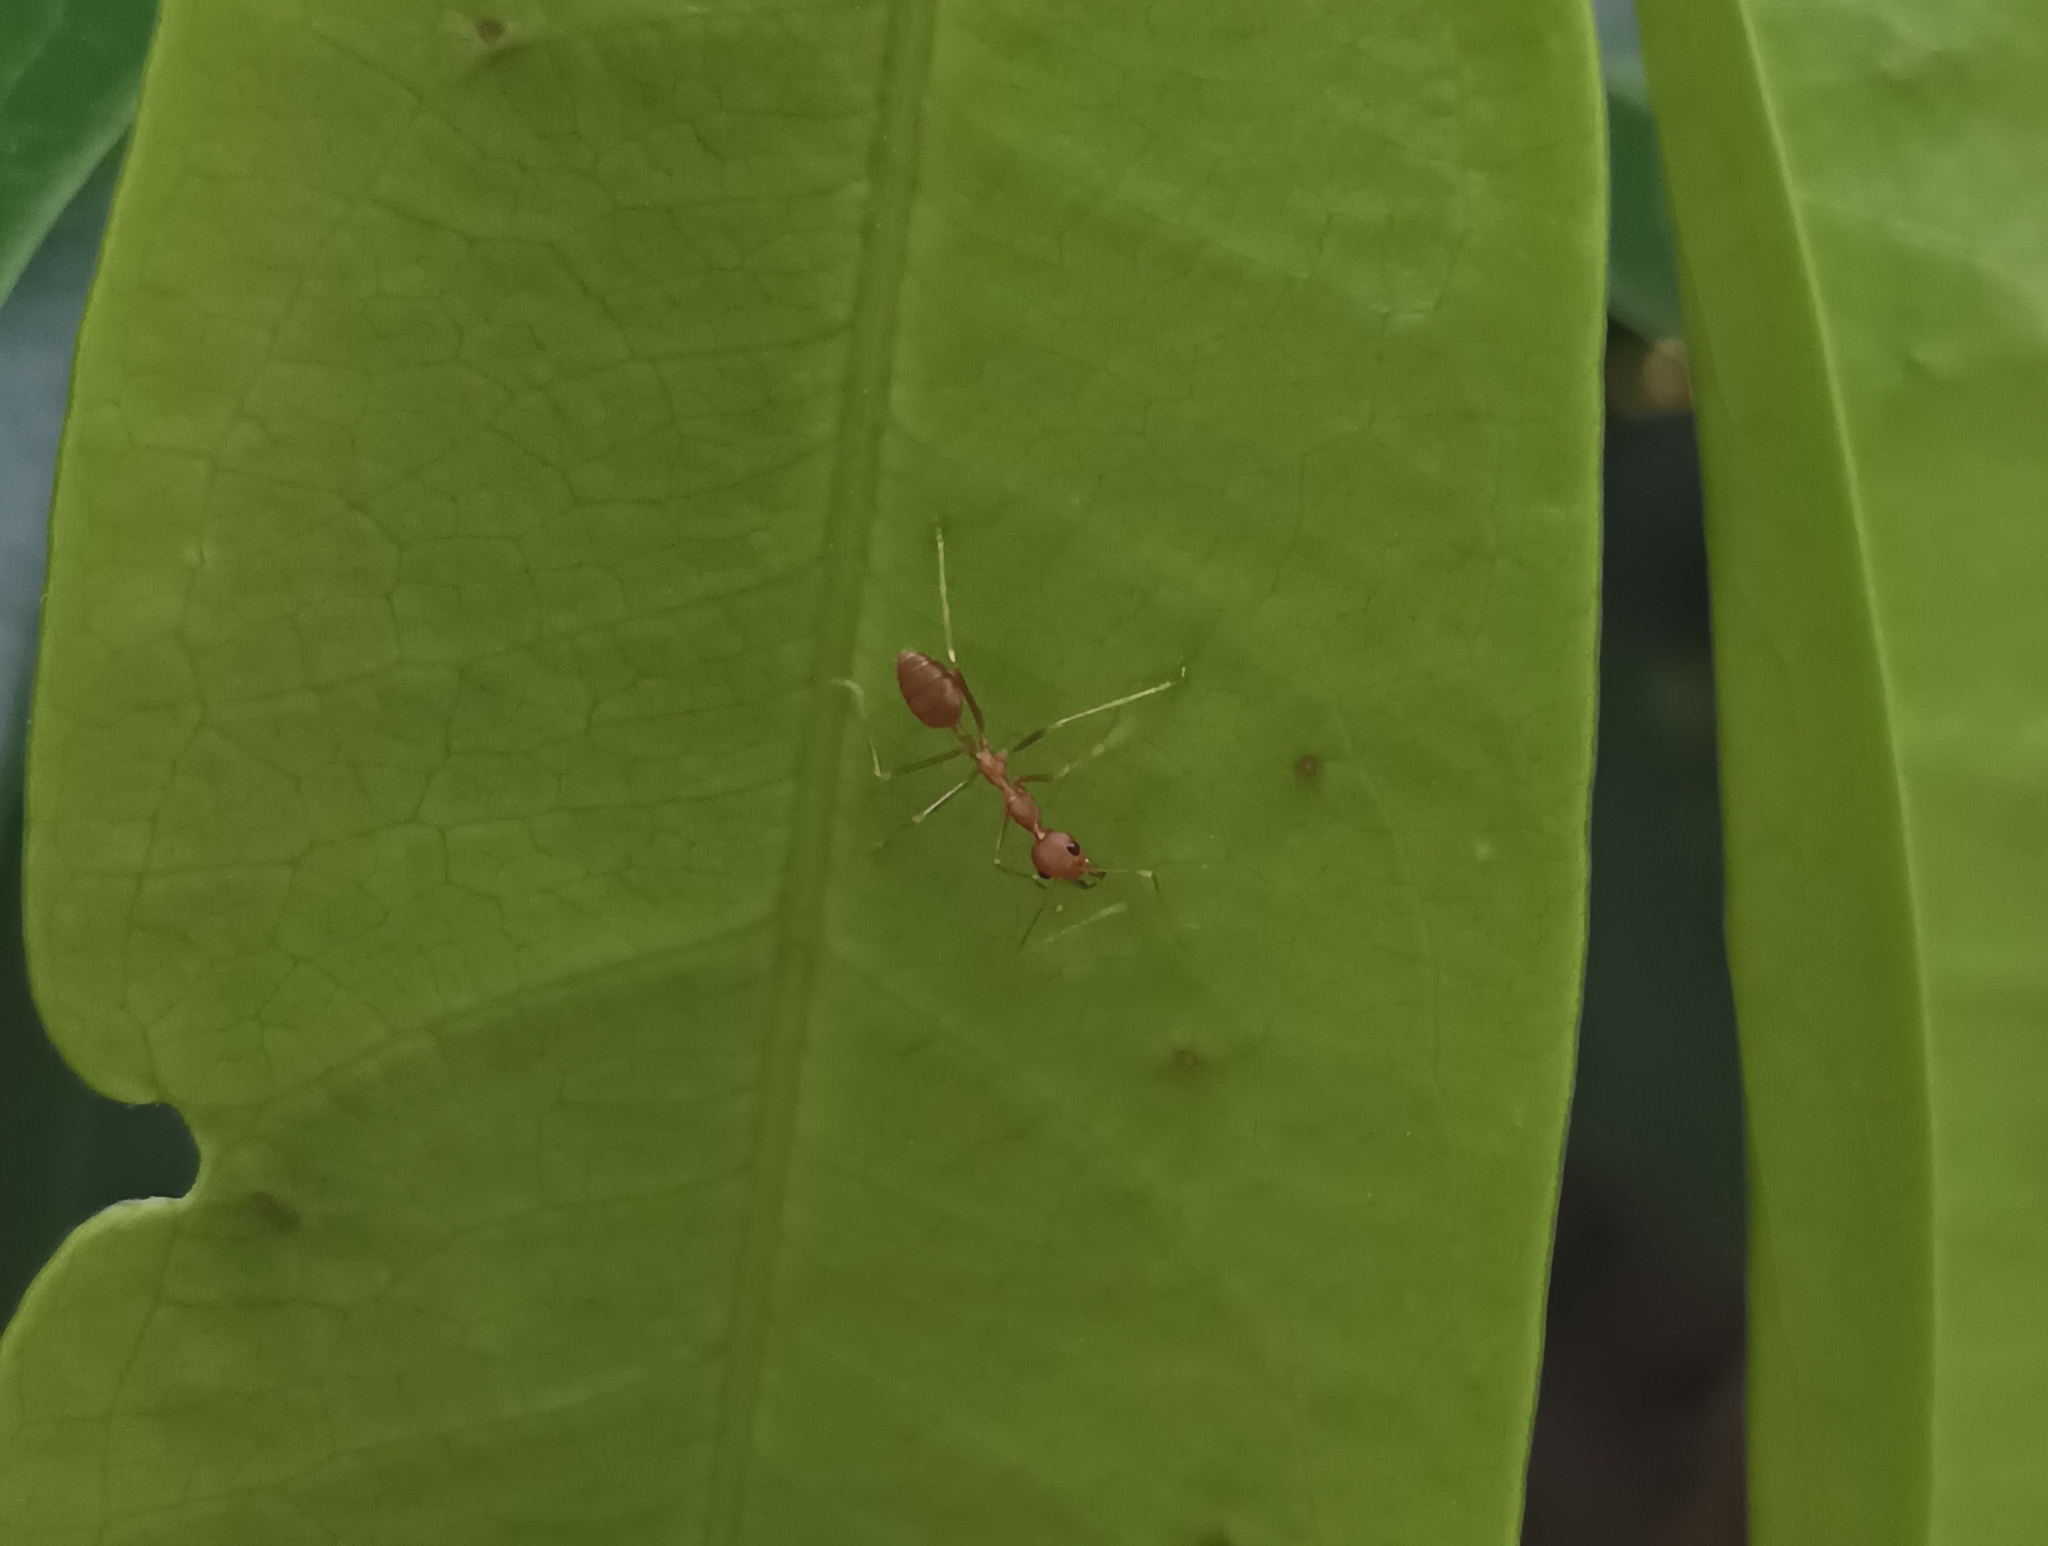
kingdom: Animalia
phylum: Arthropoda
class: Insecta
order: Hymenoptera
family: Formicidae
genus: Oecophylla
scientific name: Oecophylla smaragdina
